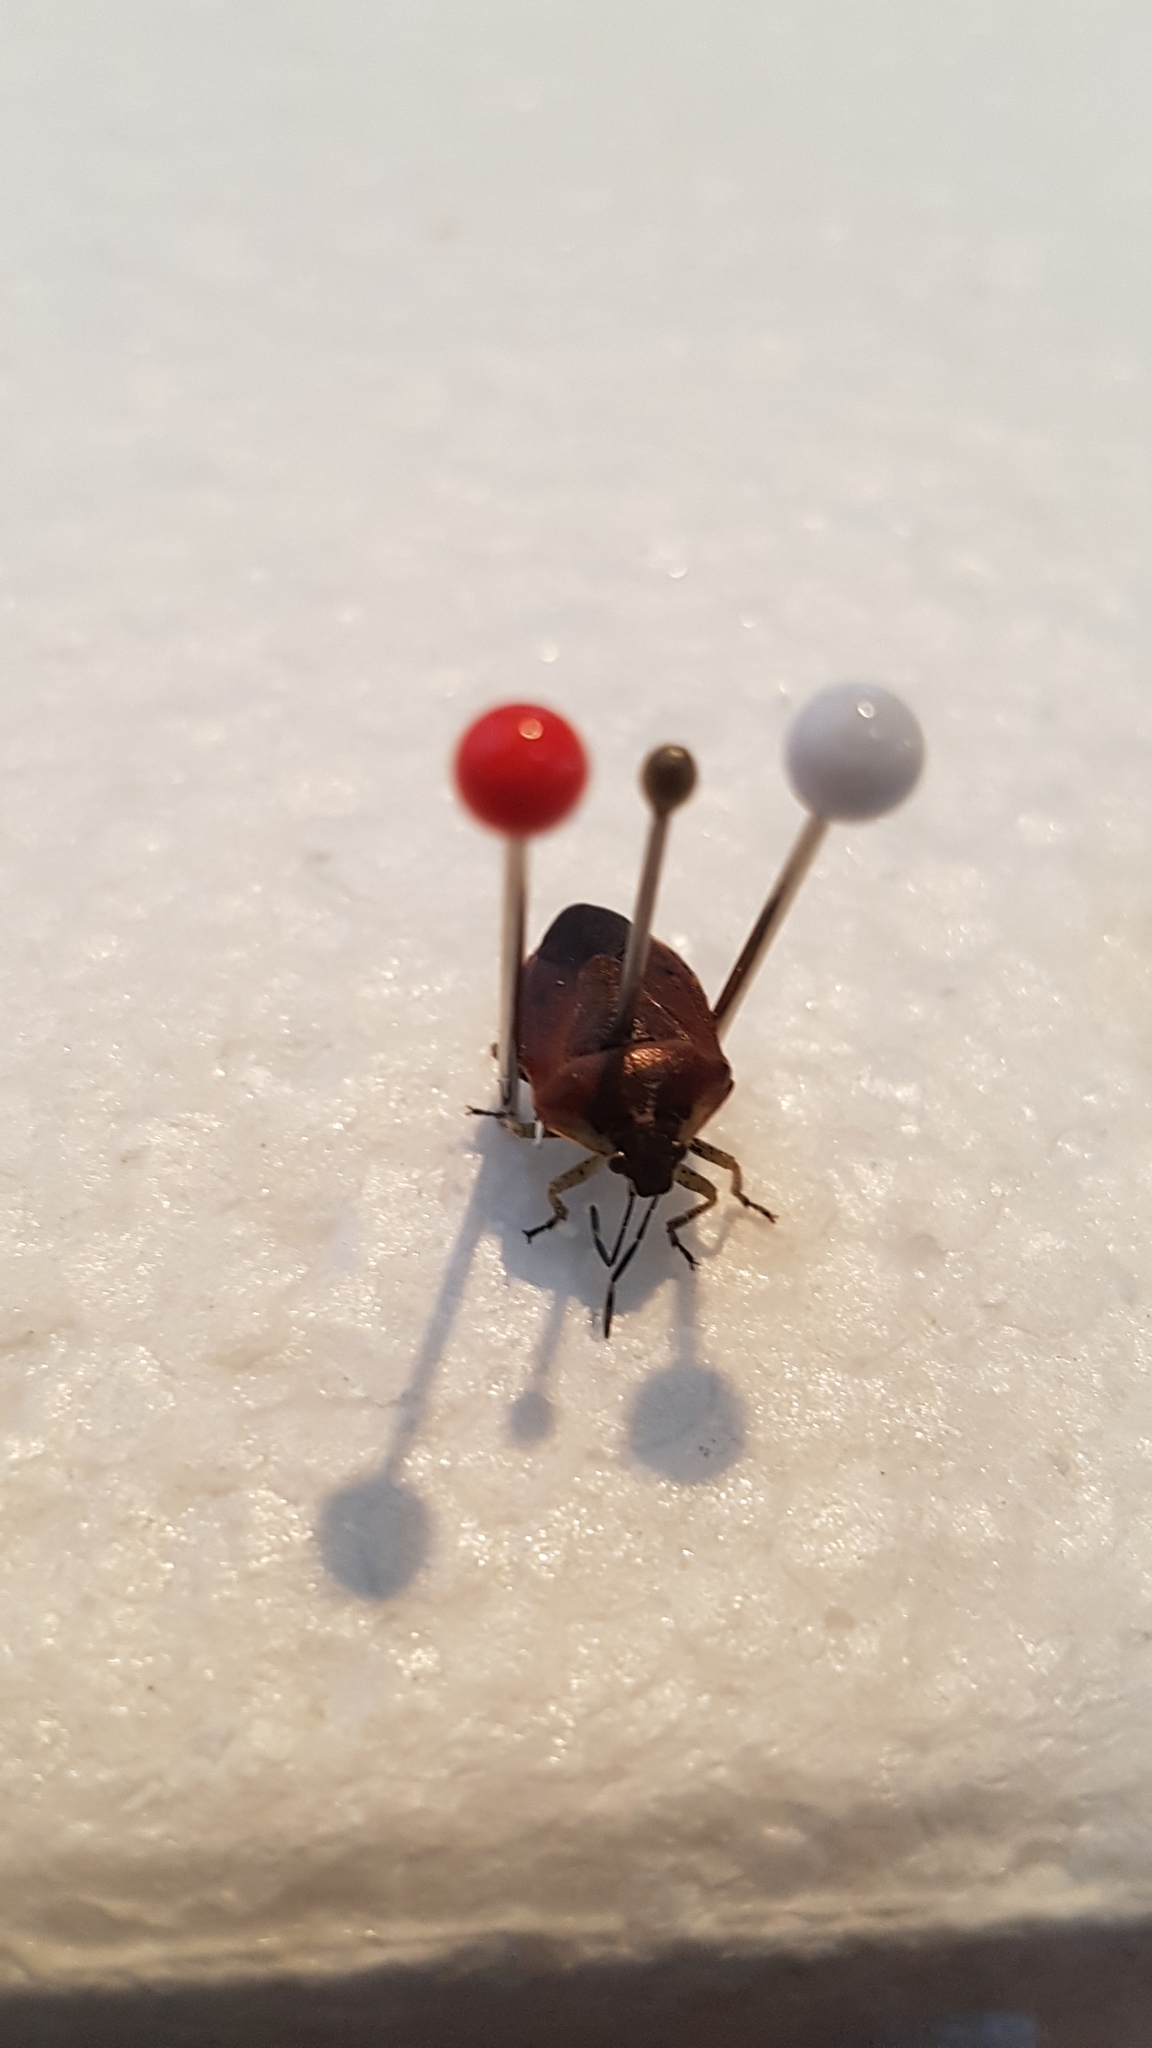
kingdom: Animalia
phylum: Arthropoda
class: Insecta
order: Hemiptera
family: Pentatomidae
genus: Monteithiella
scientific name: Monteithiella
